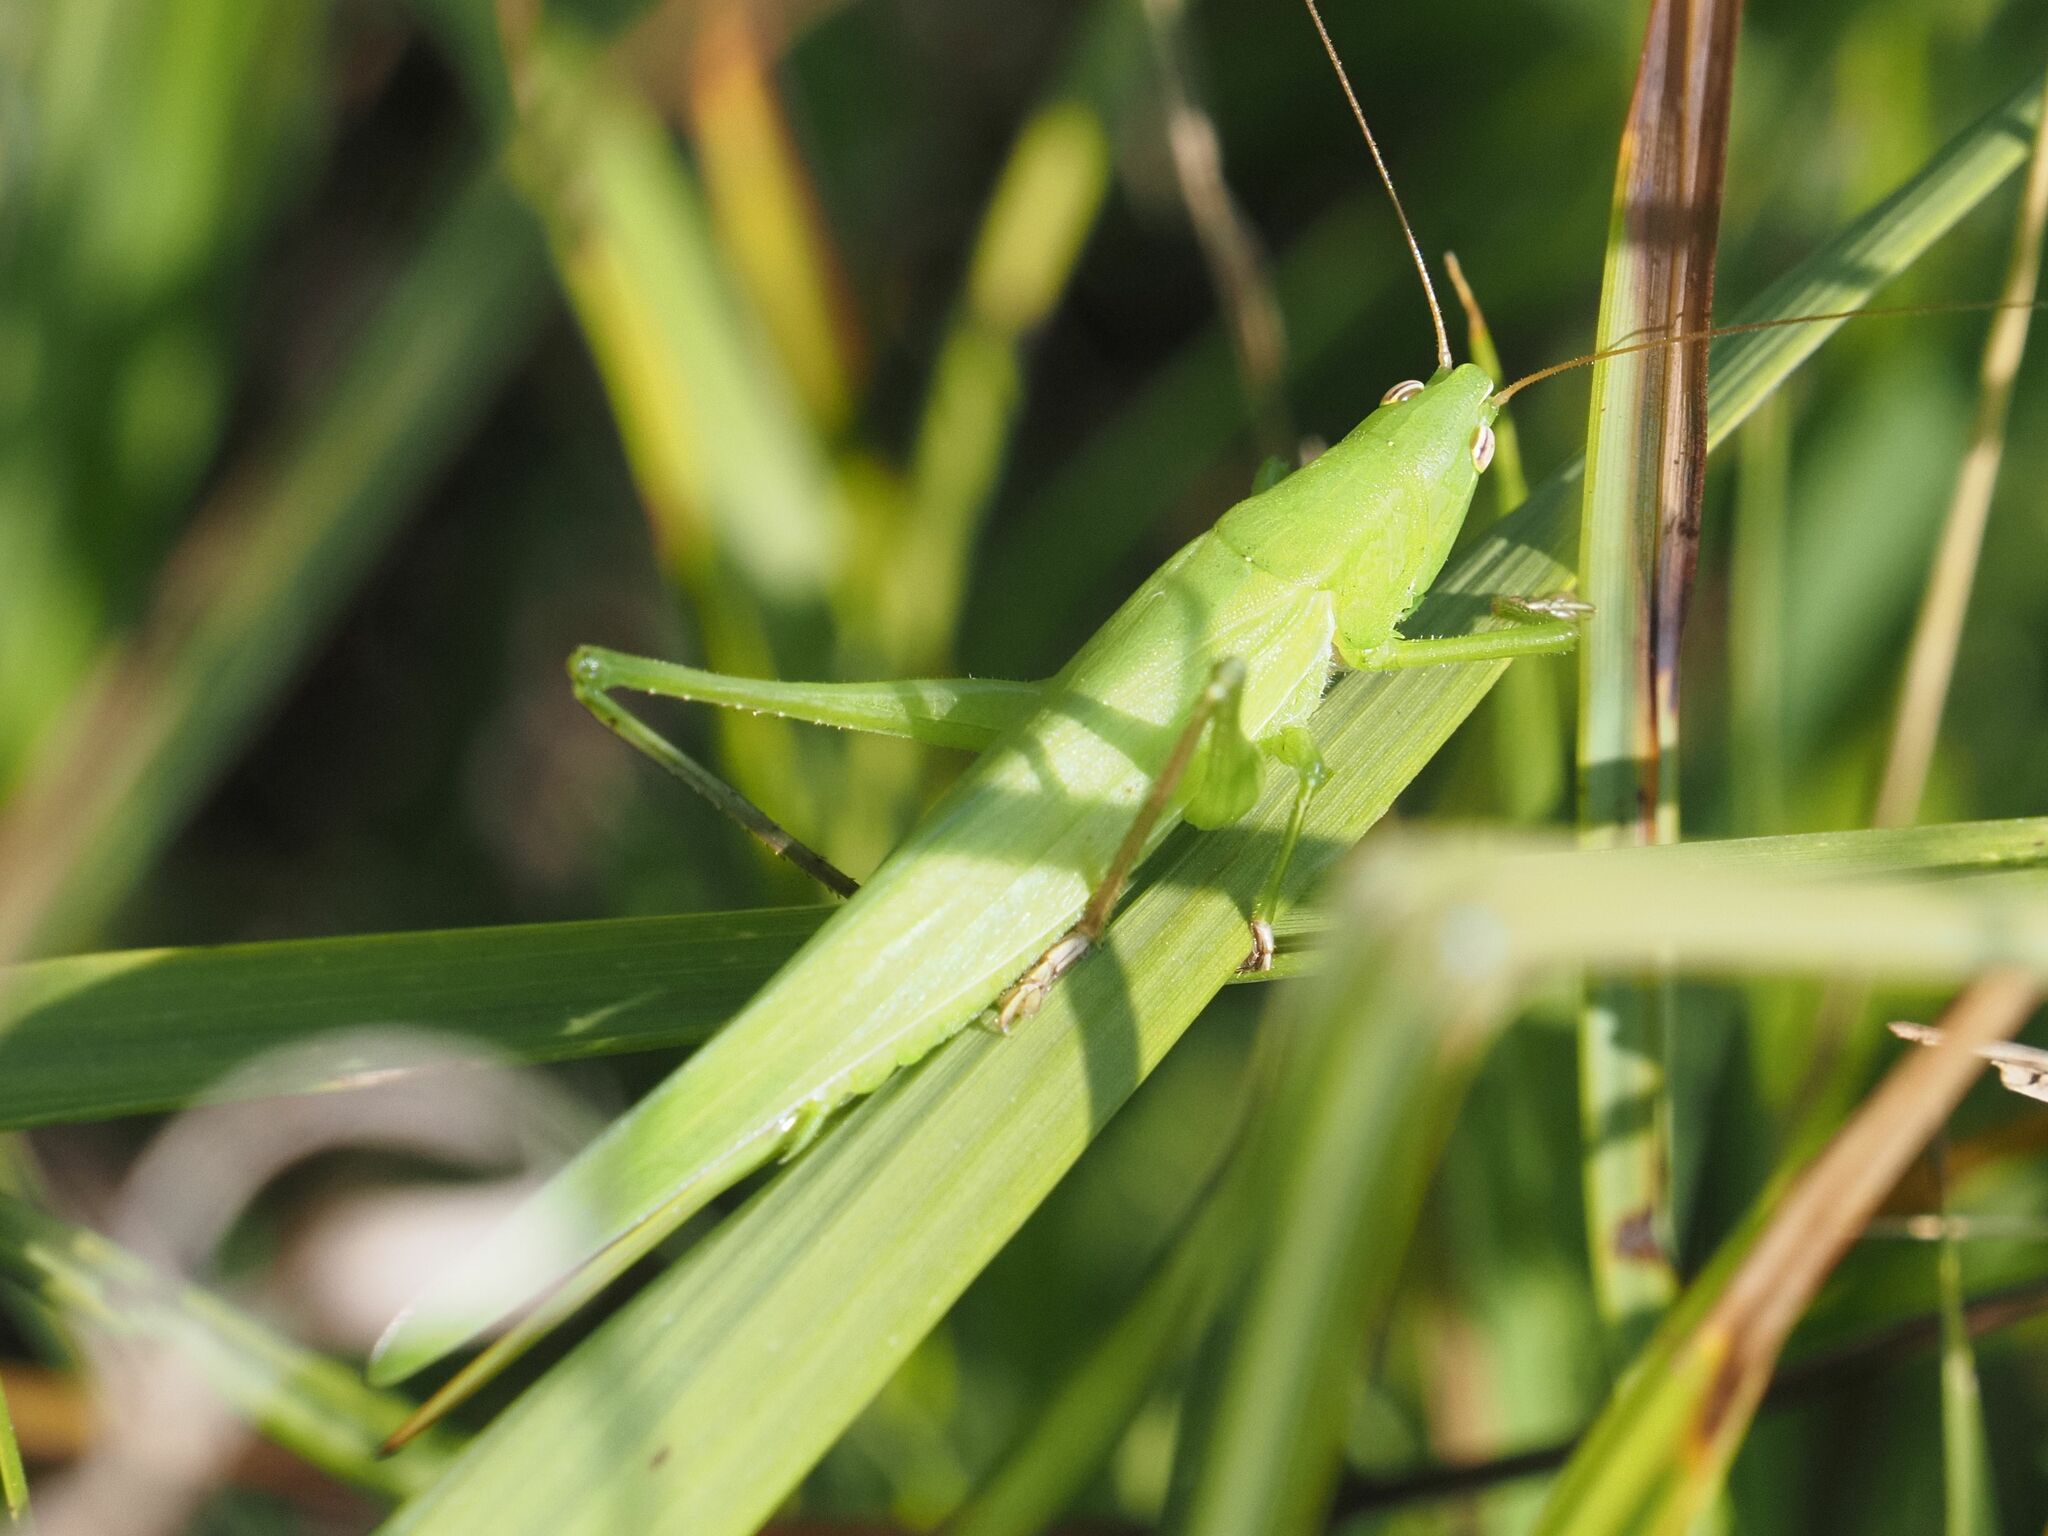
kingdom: Animalia
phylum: Arthropoda
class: Insecta
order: Orthoptera
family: Tettigoniidae
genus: Ruspolia
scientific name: Ruspolia nitidula
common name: Large conehead
